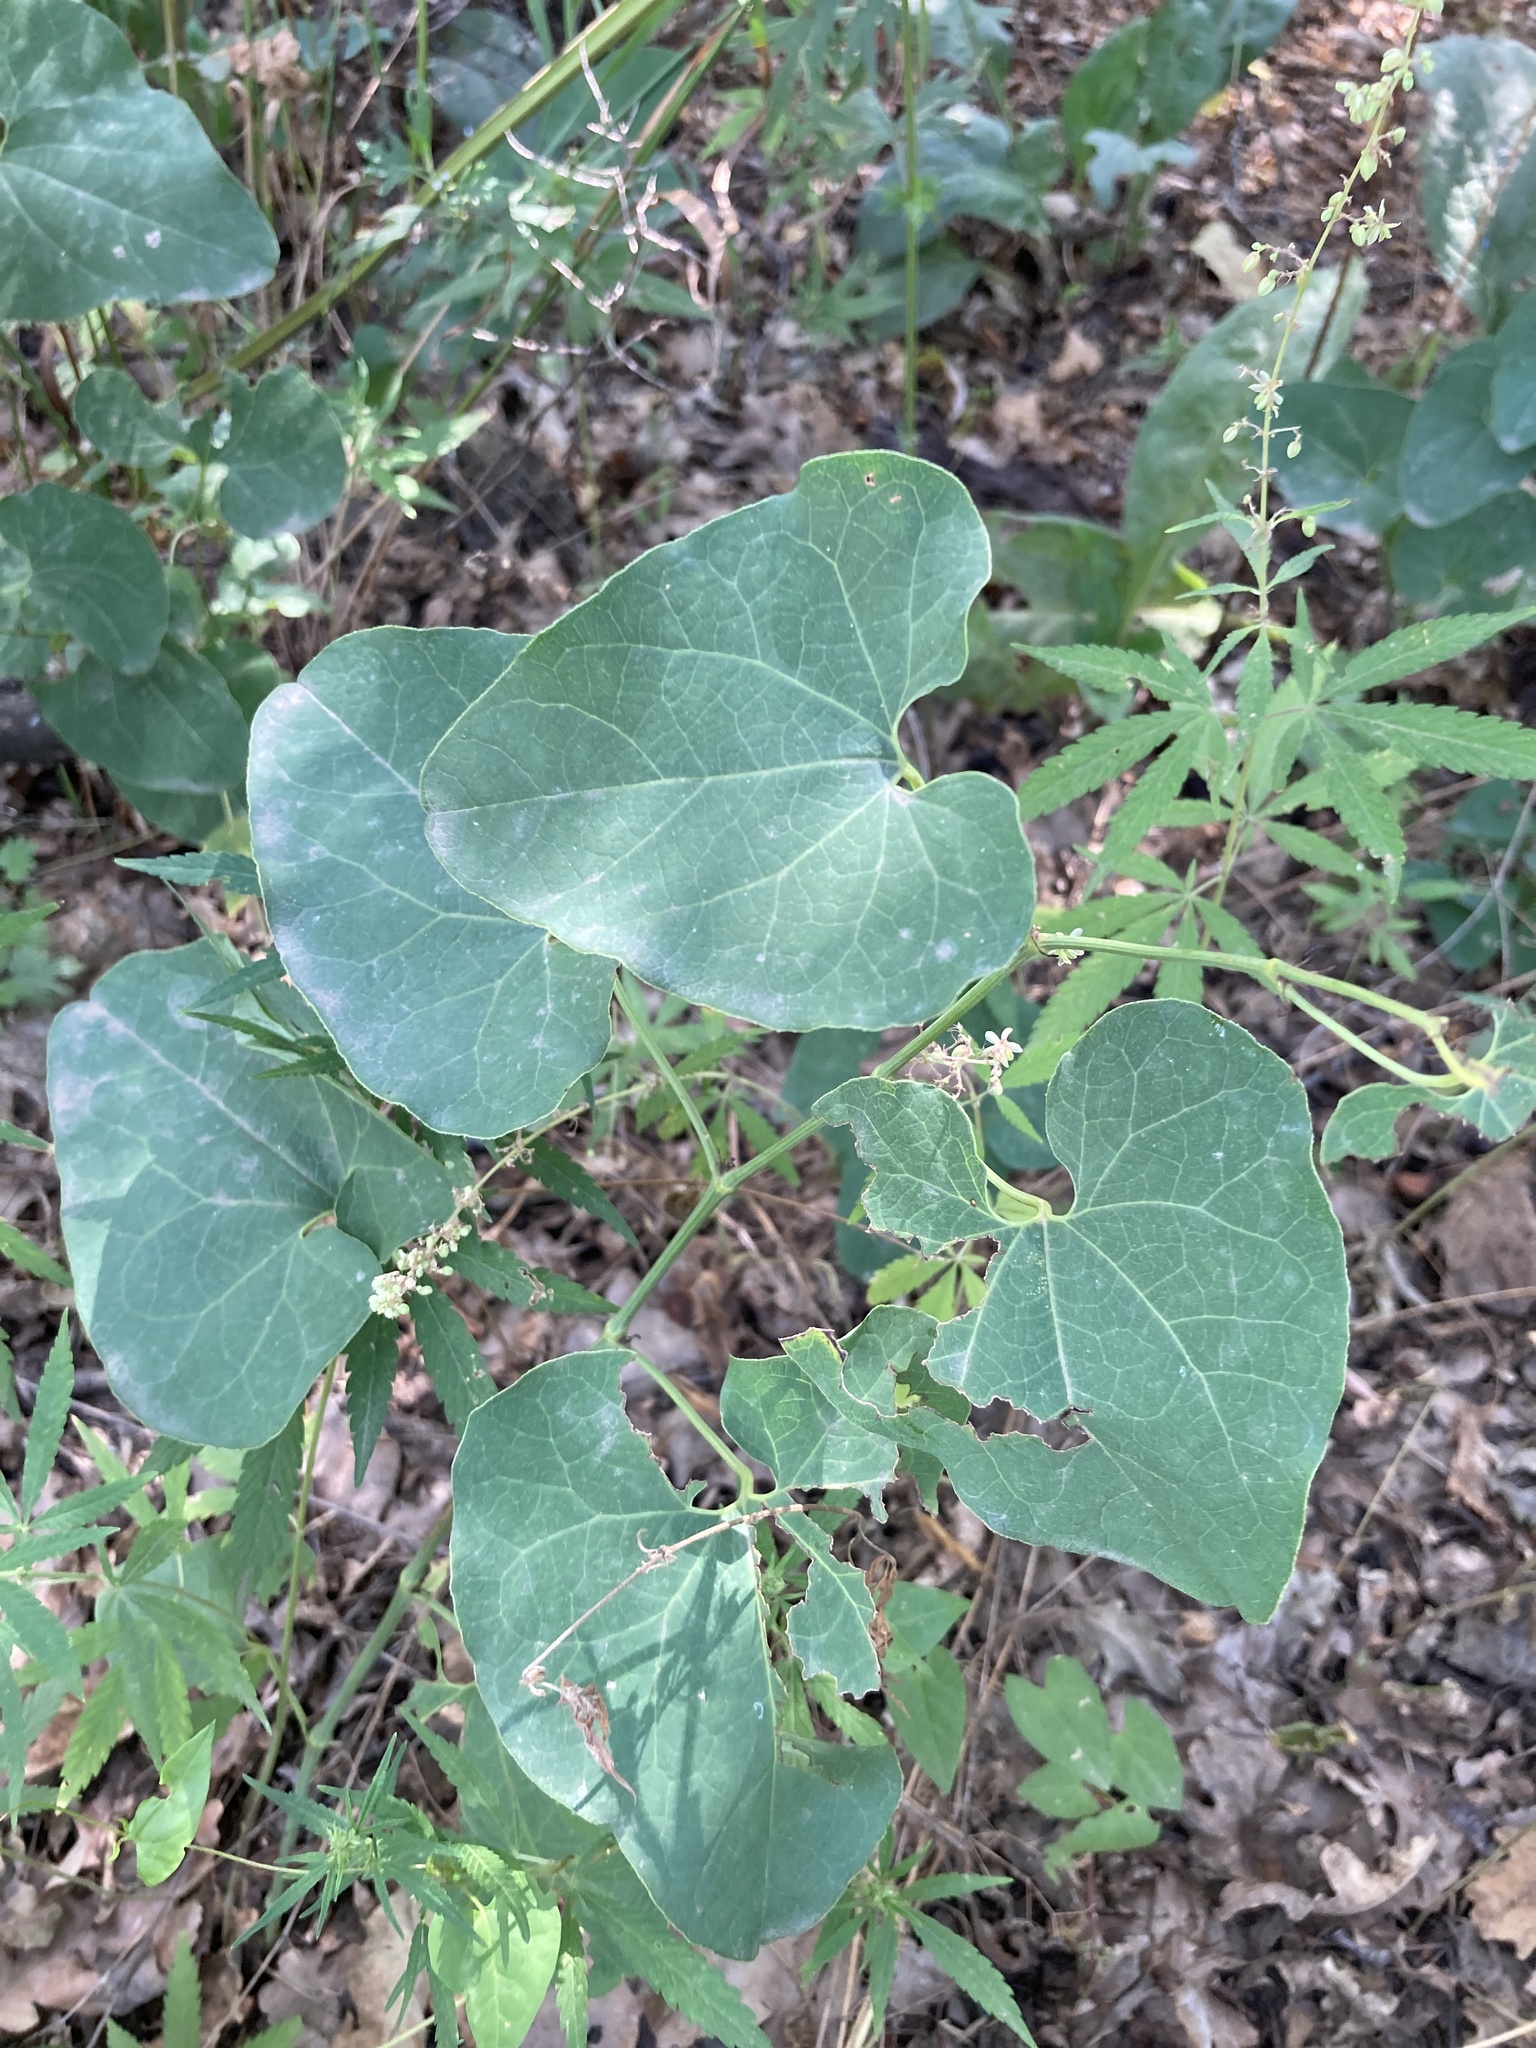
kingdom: Plantae
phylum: Tracheophyta
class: Magnoliopsida
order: Piperales
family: Aristolochiaceae
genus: Aristolochia
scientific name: Aristolochia clematitis
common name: Birthwort
